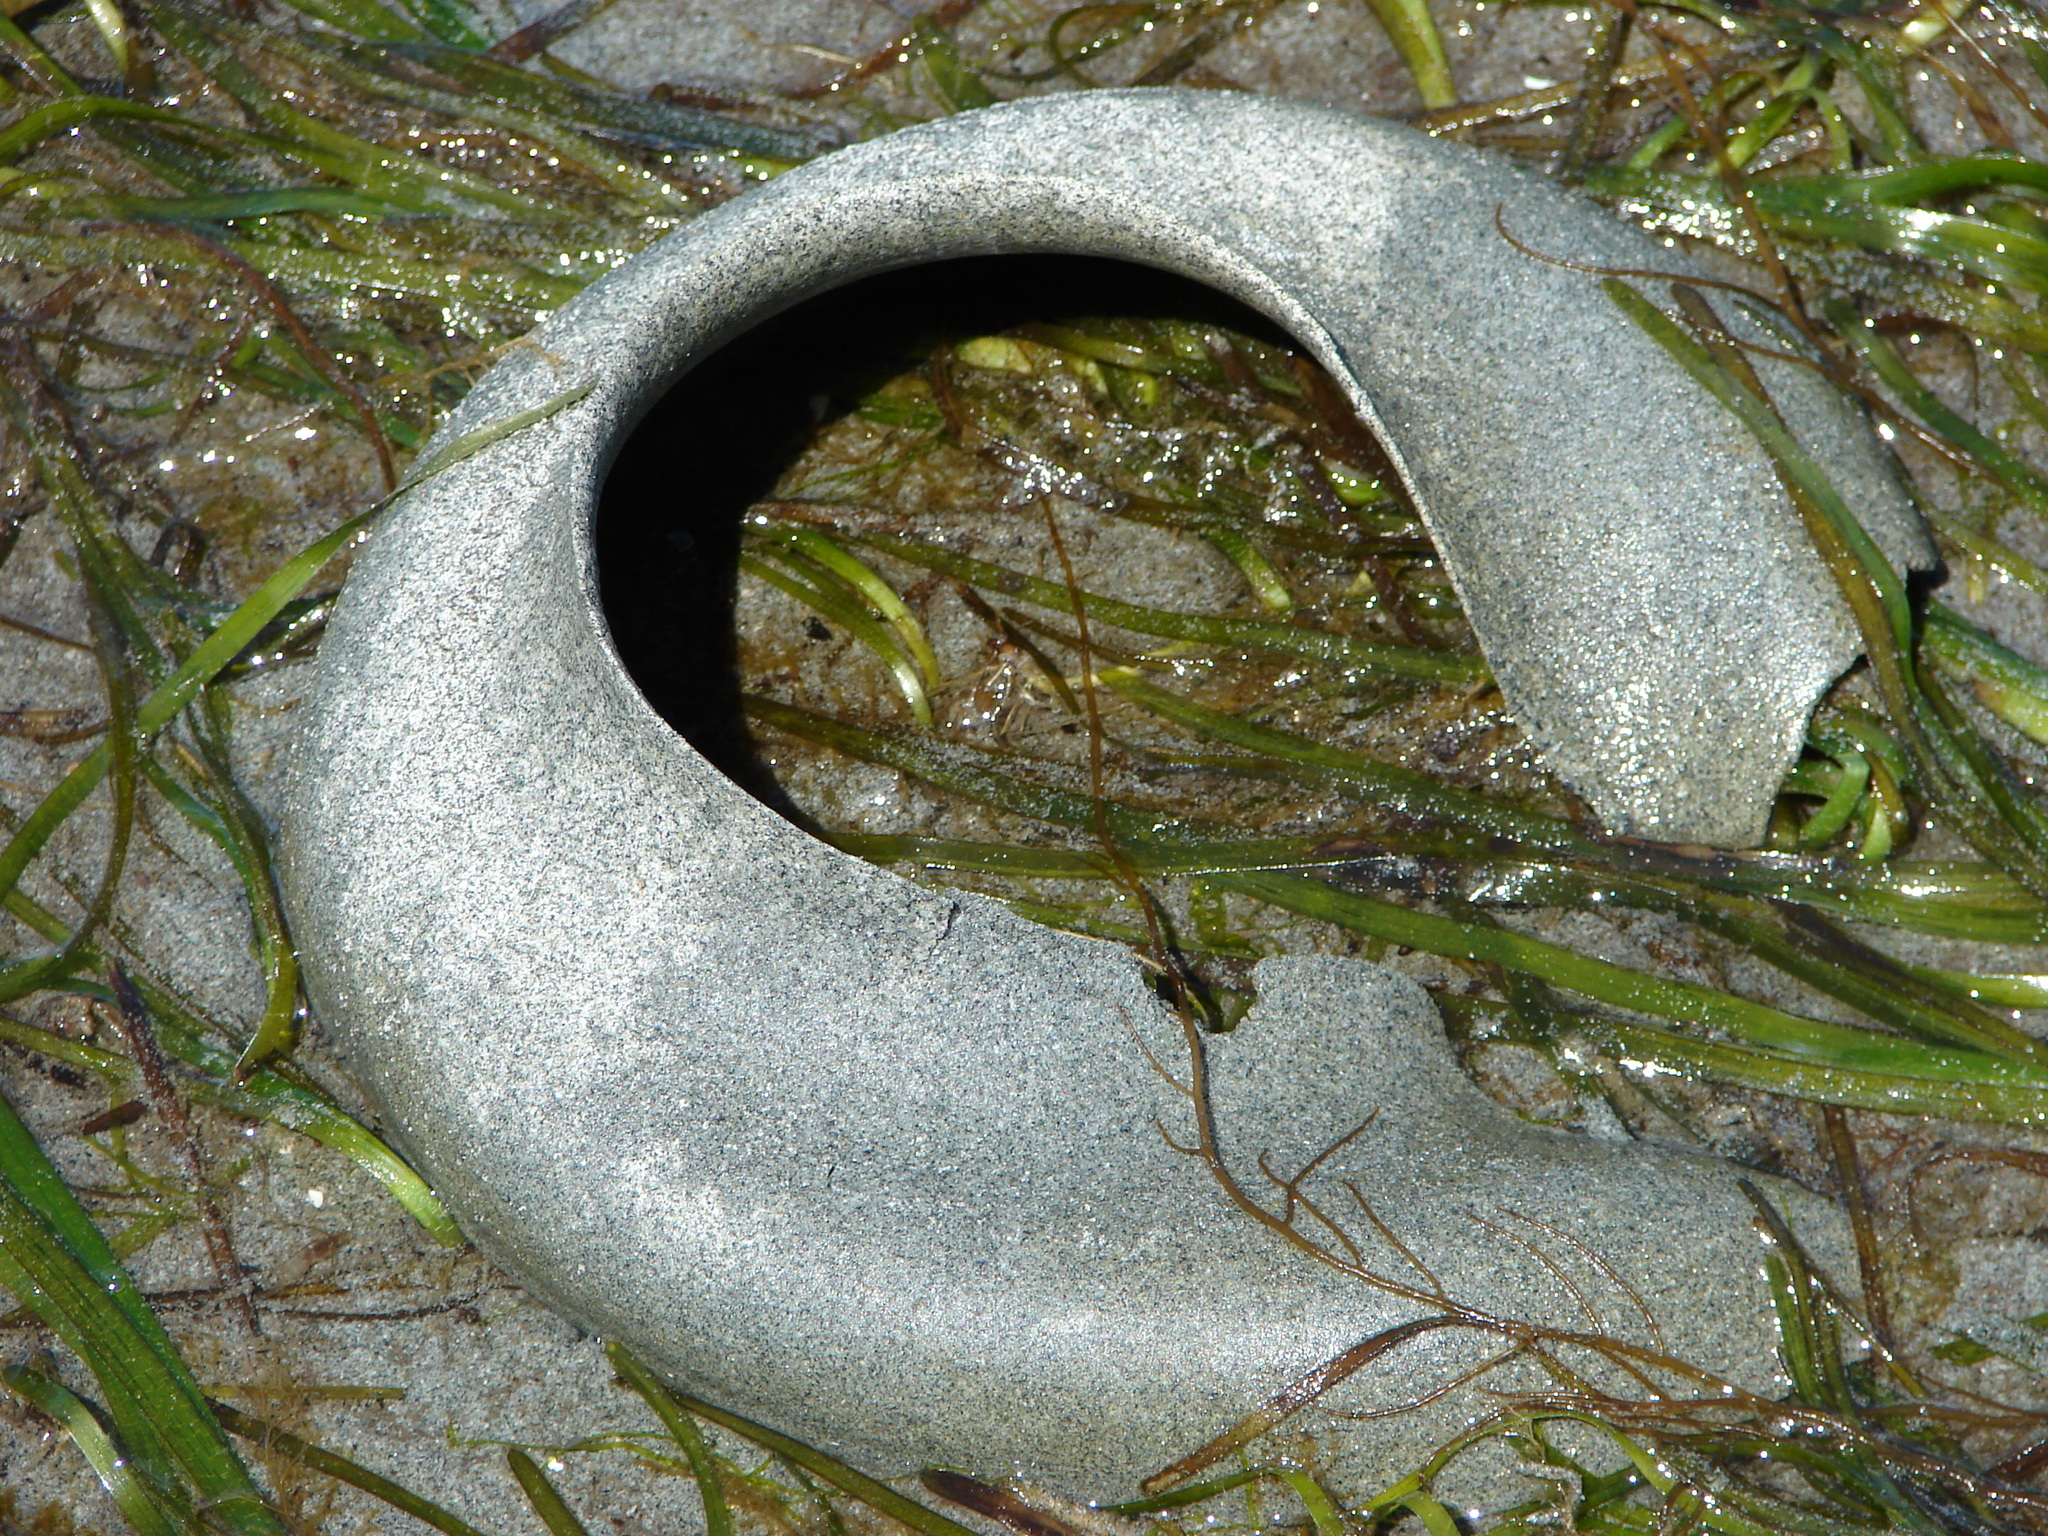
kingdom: Animalia
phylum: Mollusca
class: Gastropoda
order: Littorinimorpha
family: Naticidae
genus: Neverita
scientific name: Neverita lewisii
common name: Lewis' moonsnail
